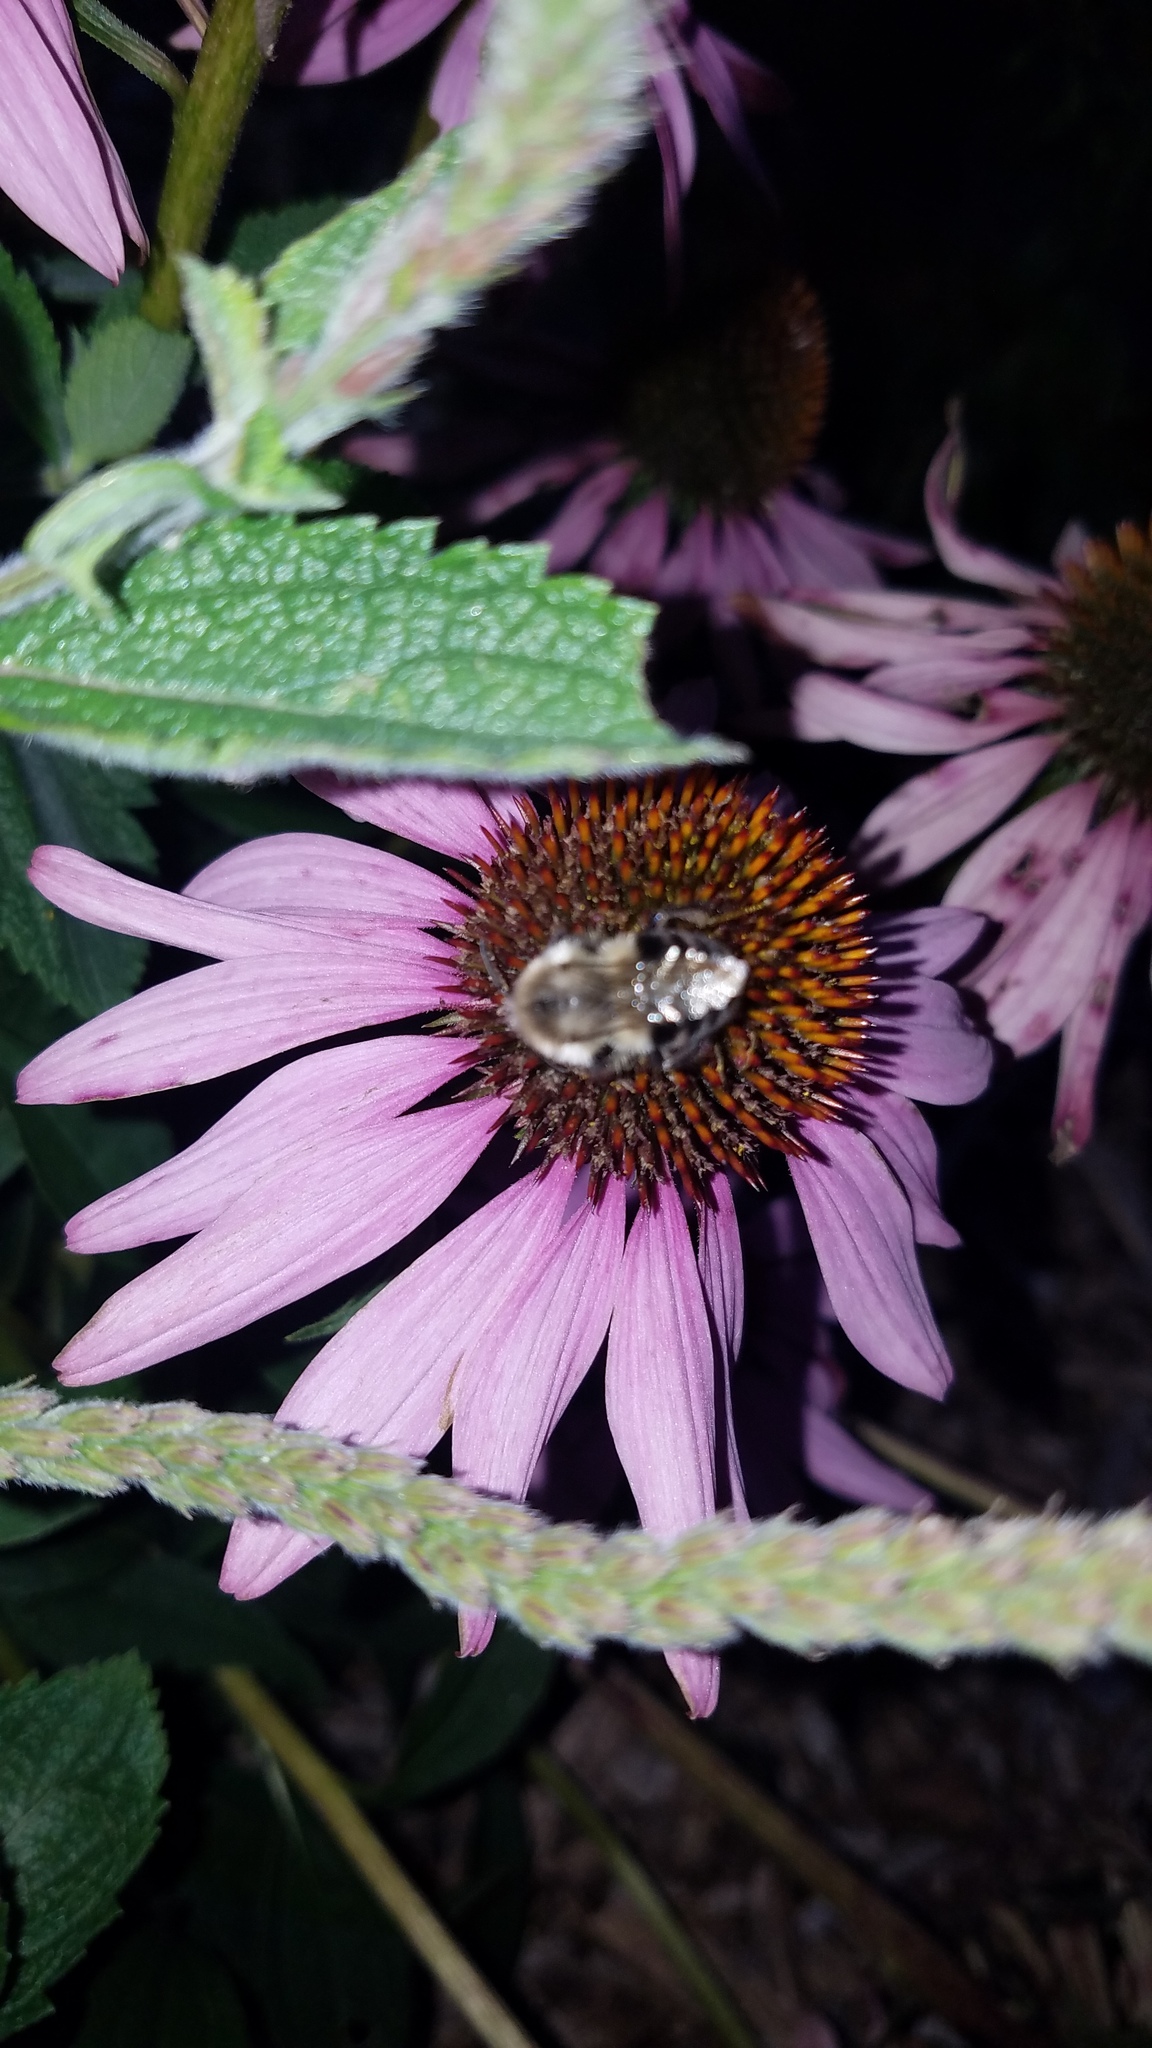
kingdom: Animalia
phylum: Arthropoda
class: Insecta
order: Hymenoptera
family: Apidae
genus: Bombus
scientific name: Bombus impatiens
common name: Common eastern bumble bee
